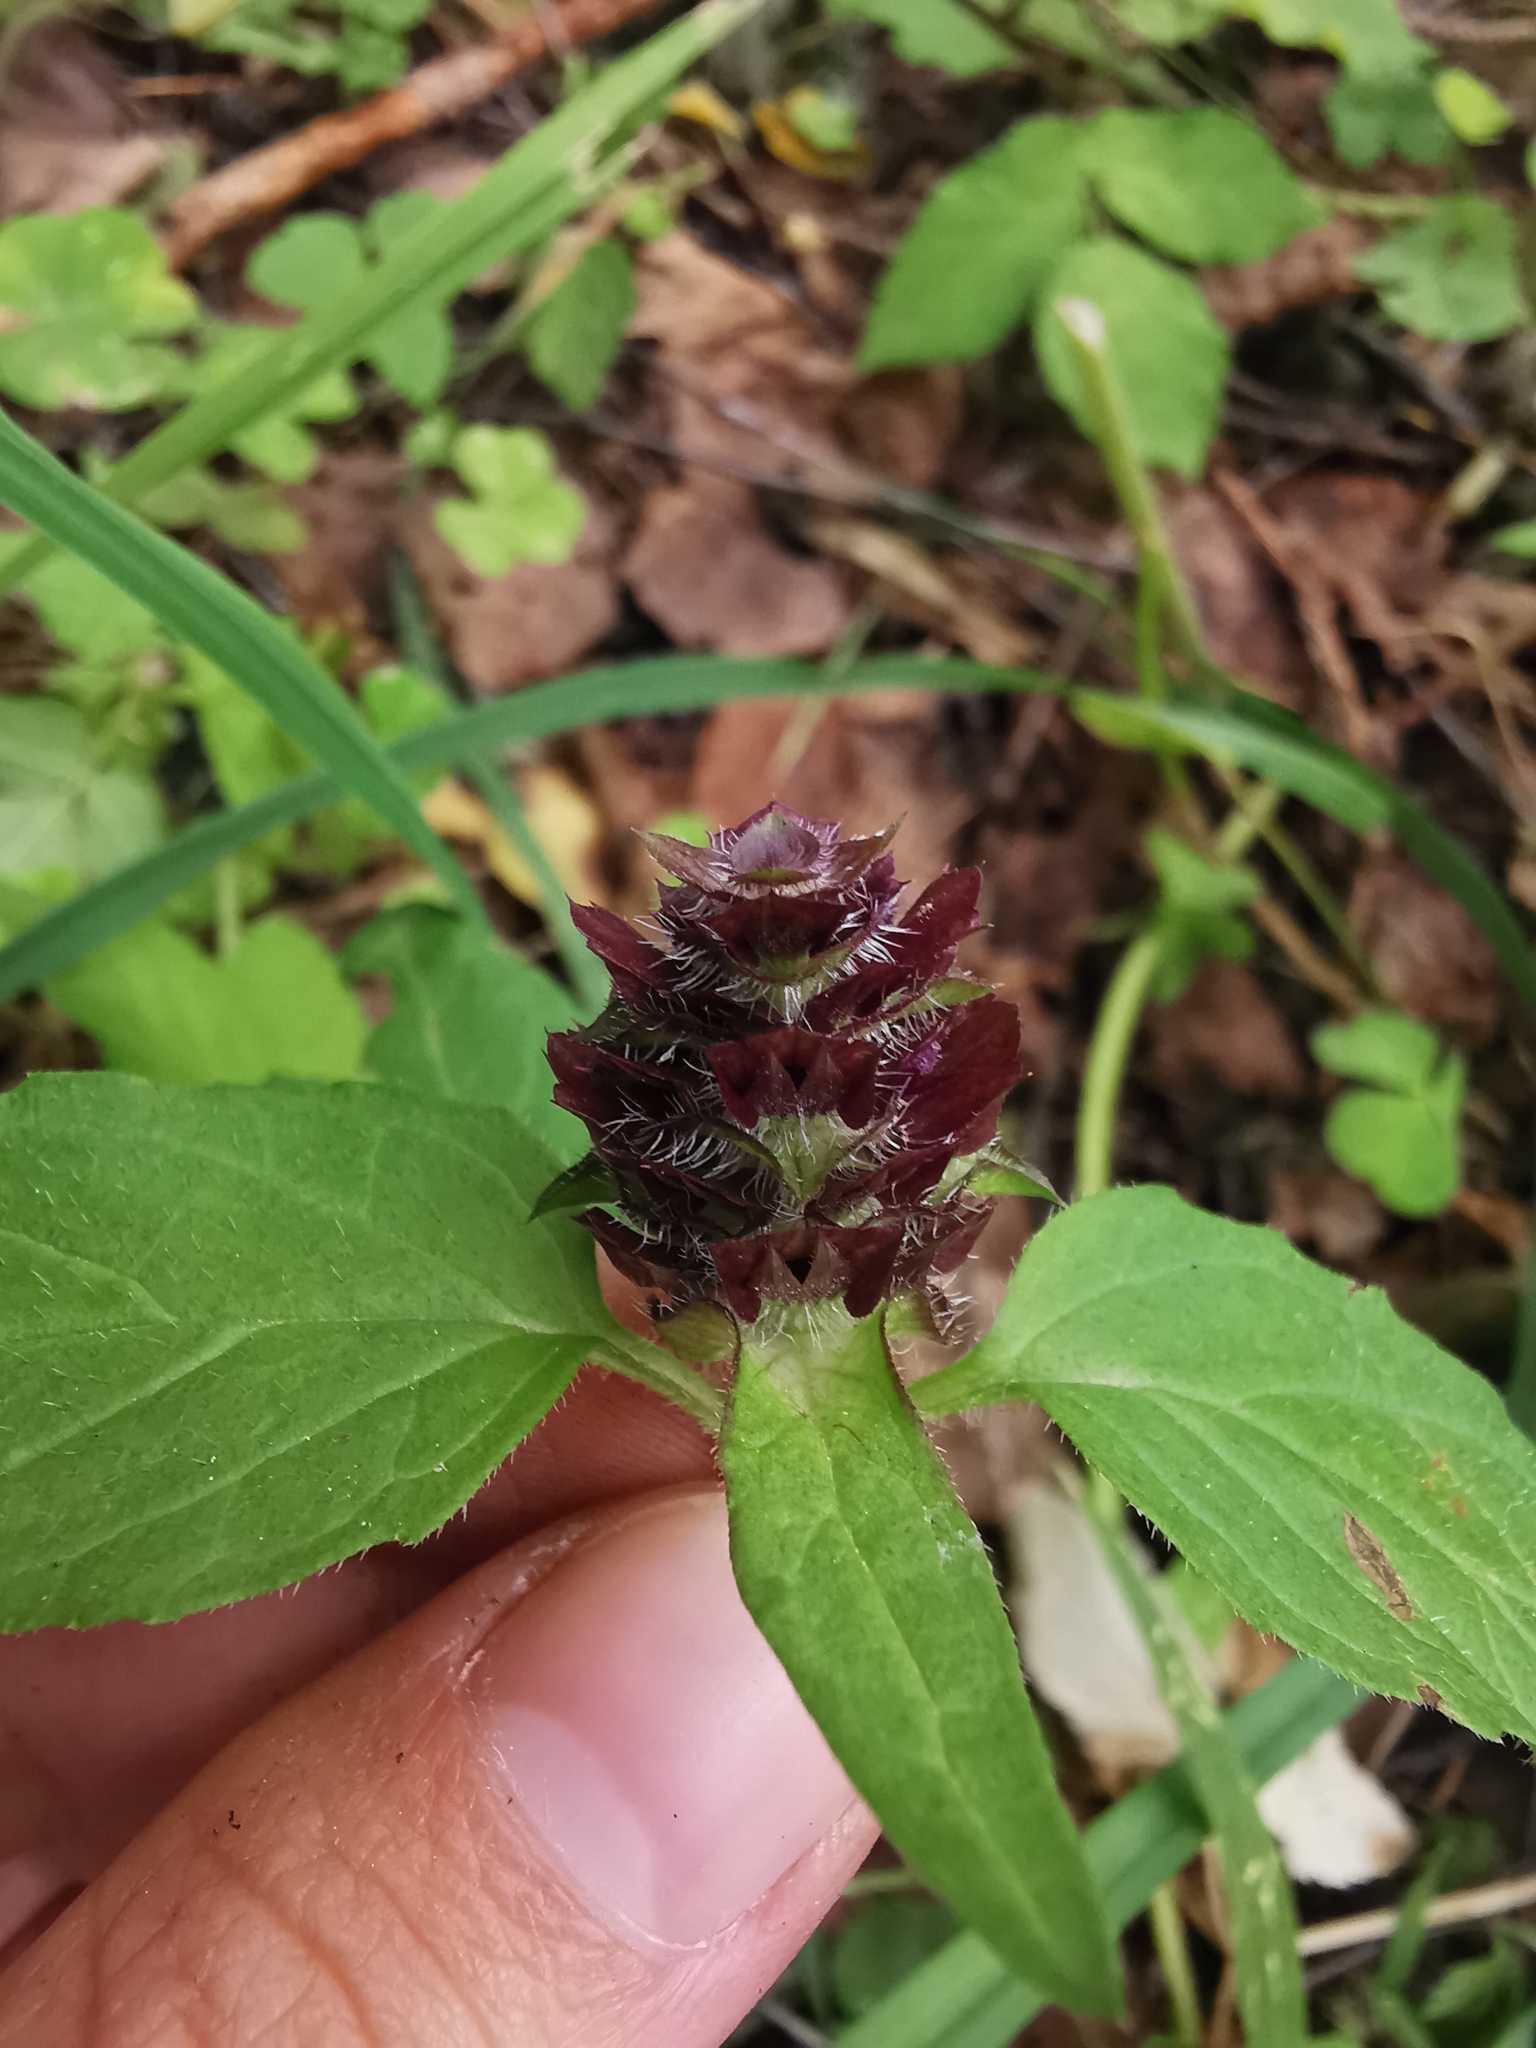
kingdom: Plantae
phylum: Tracheophyta
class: Magnoliopsida
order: Lamiales
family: Lamiaceae
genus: Prunella
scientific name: Prunella vulgaris
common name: Heal-all
